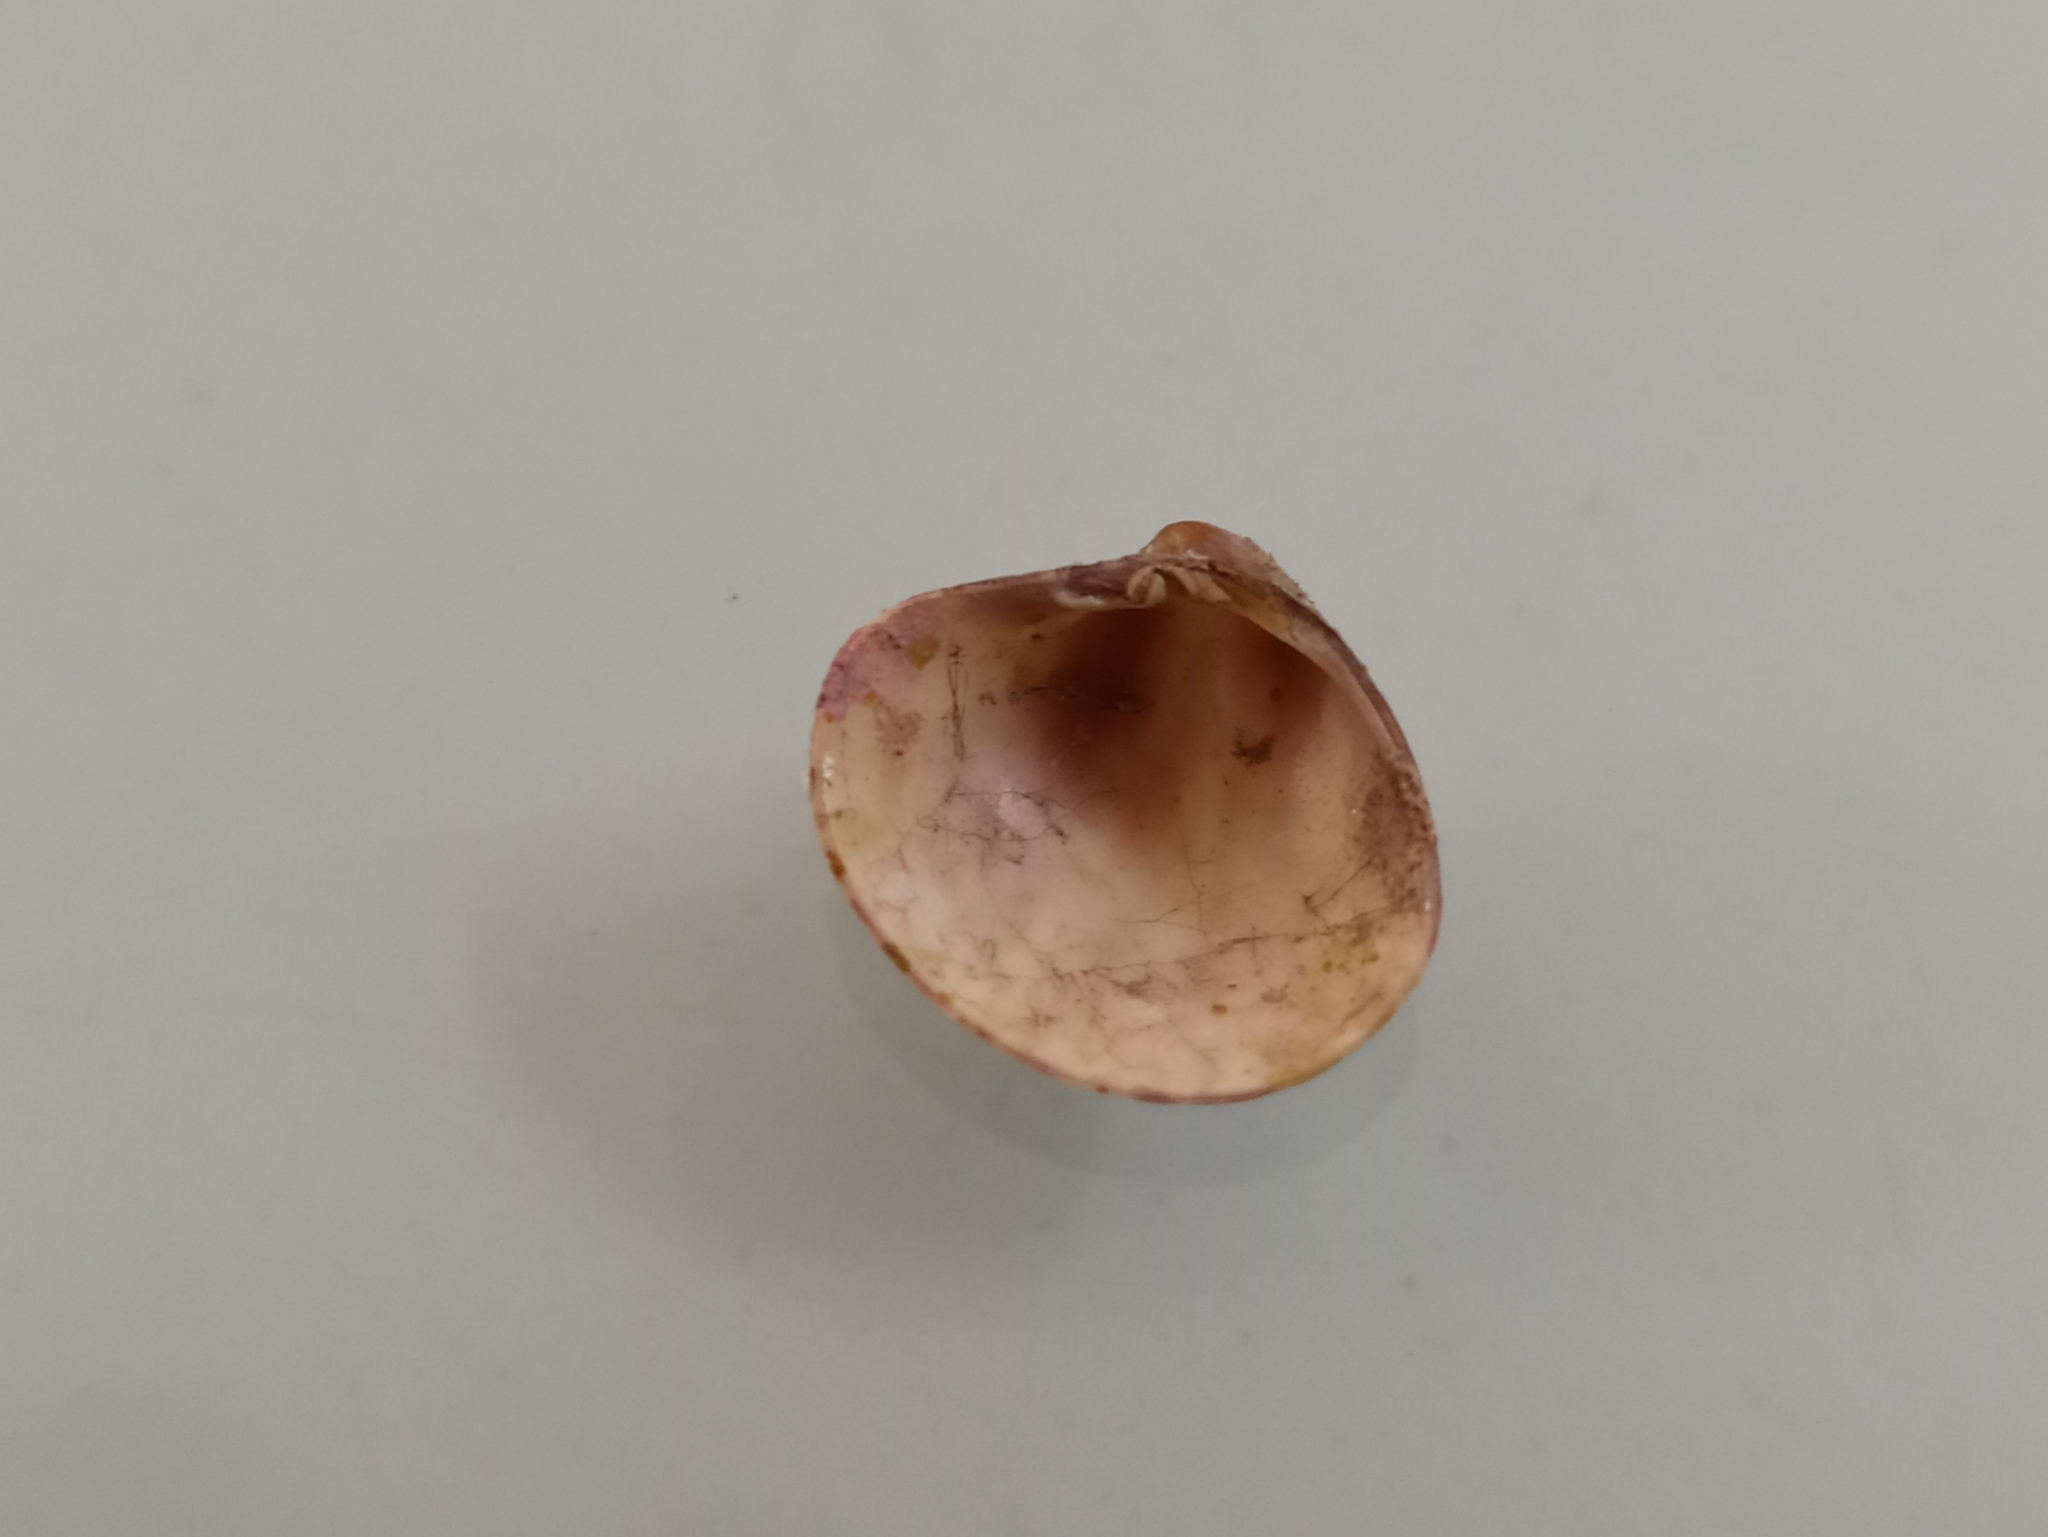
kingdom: Animalia
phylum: Mollusca
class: Bivalvia
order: Venerida
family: Veneridae
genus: Pitar
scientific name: Pitar rudis
